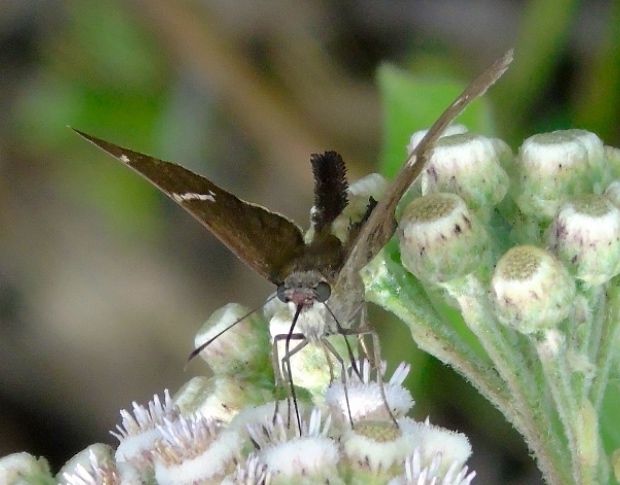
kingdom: Animalia
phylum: Arthropoda
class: Insecta
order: Lepidoptera
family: Hesperiidae
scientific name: Hesperiidae
